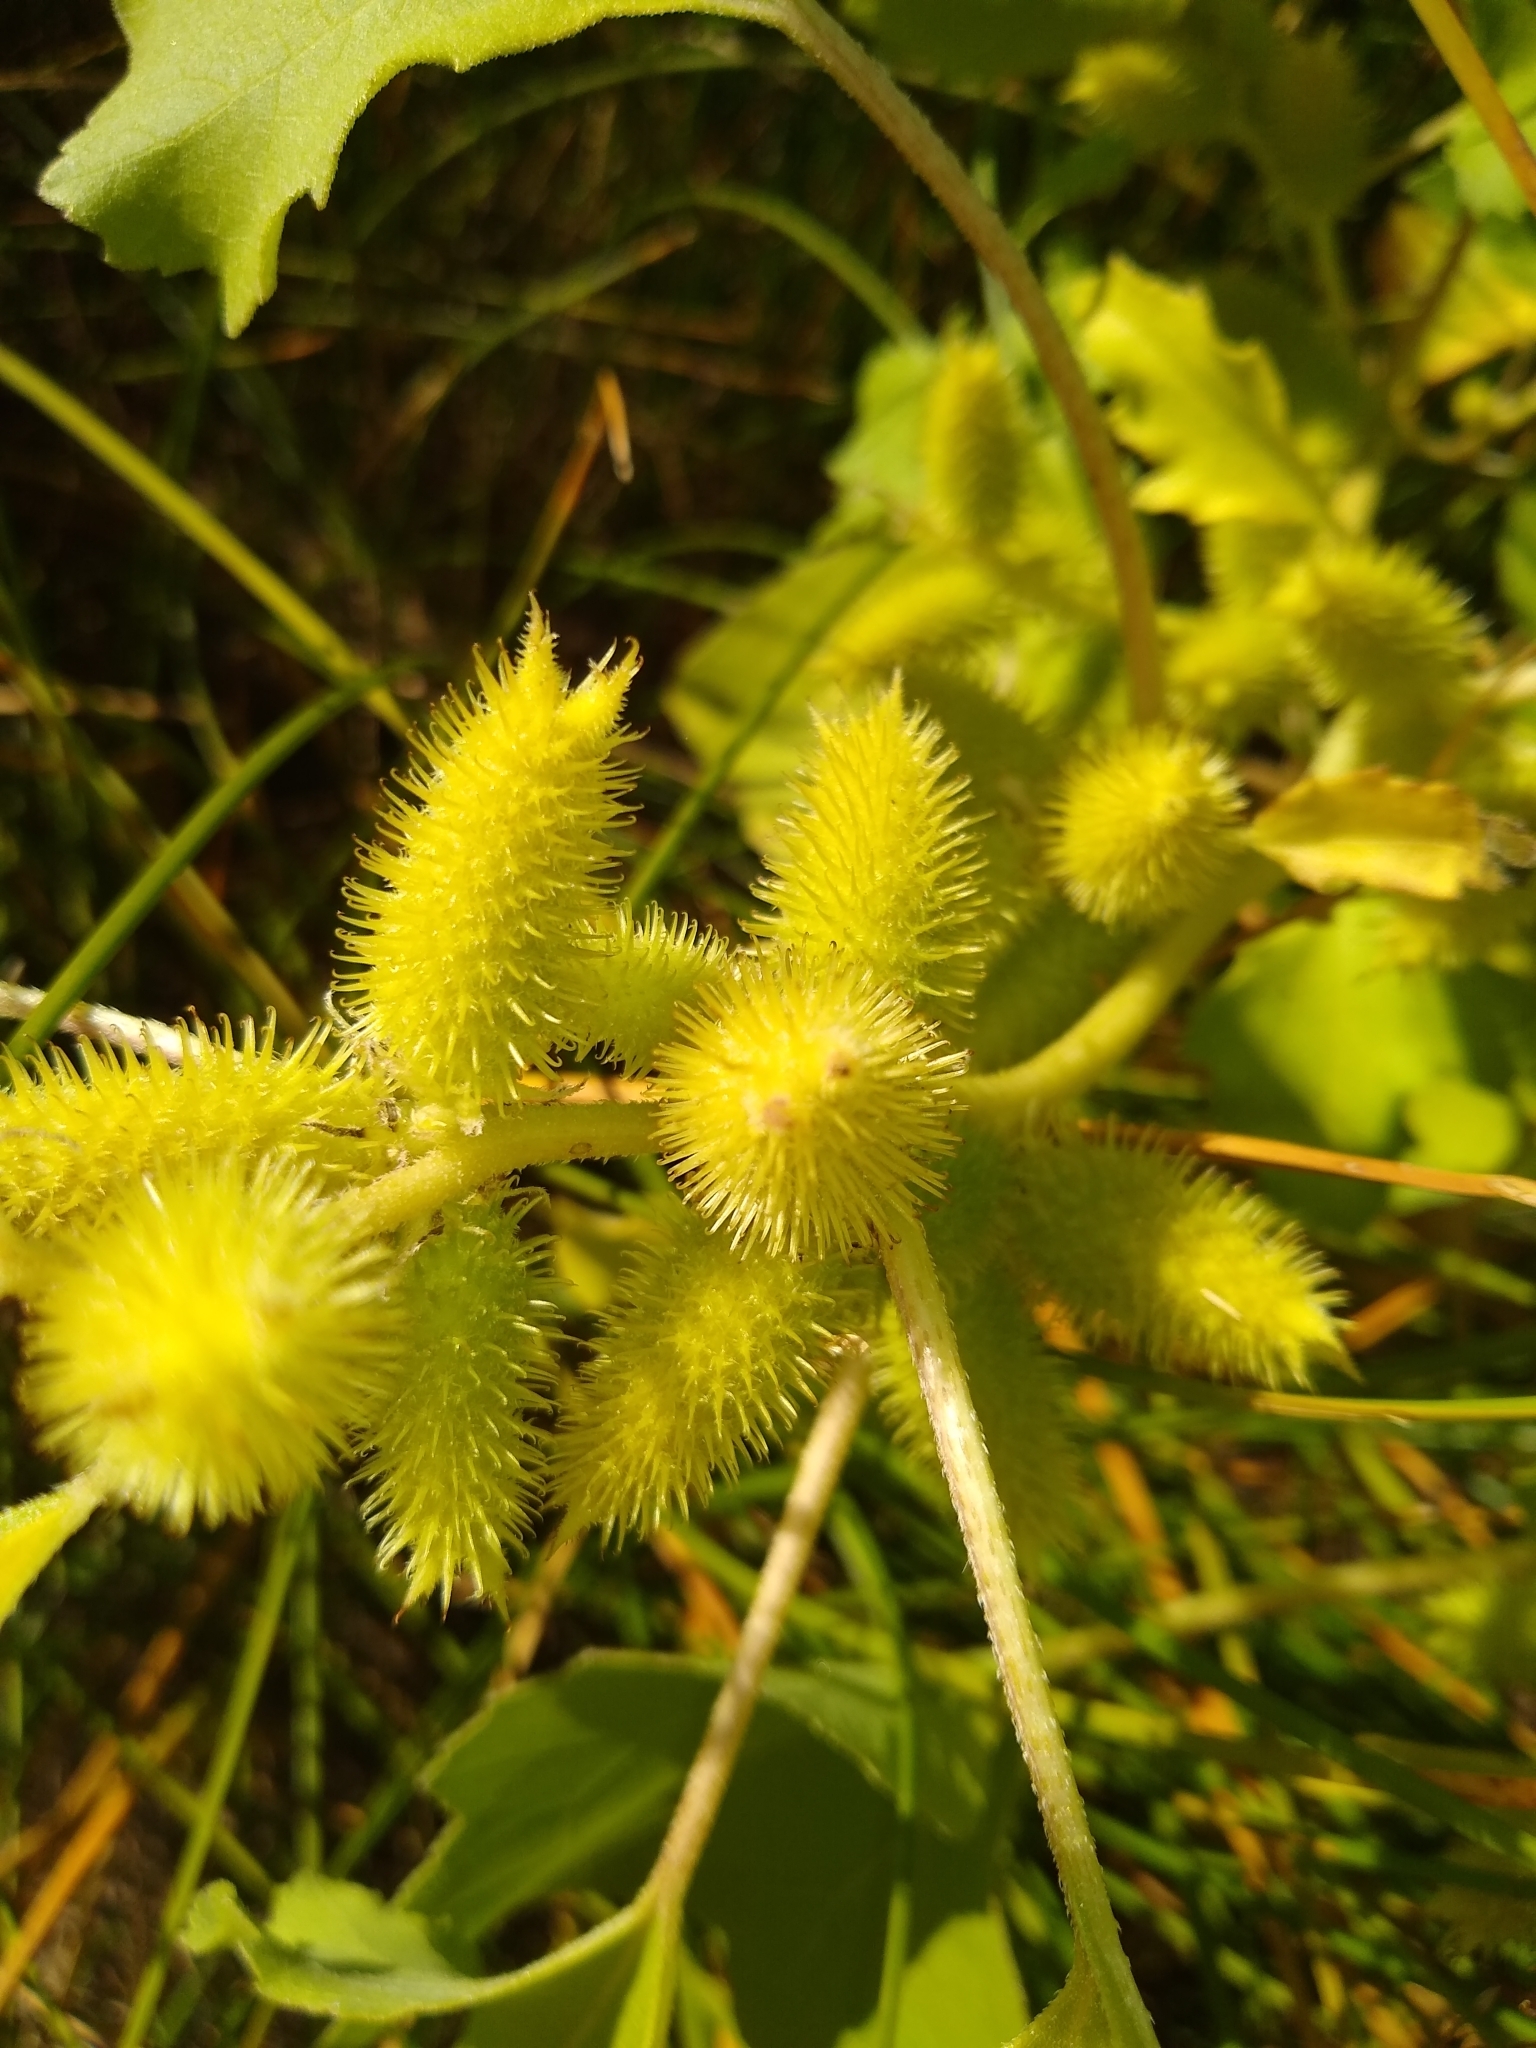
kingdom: Plantae
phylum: Tracheophyta
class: Magnoliopsida
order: Asterales
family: Asteraceae
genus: Xanthium
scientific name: Xanthium strumarium
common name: Rough cocklebur
